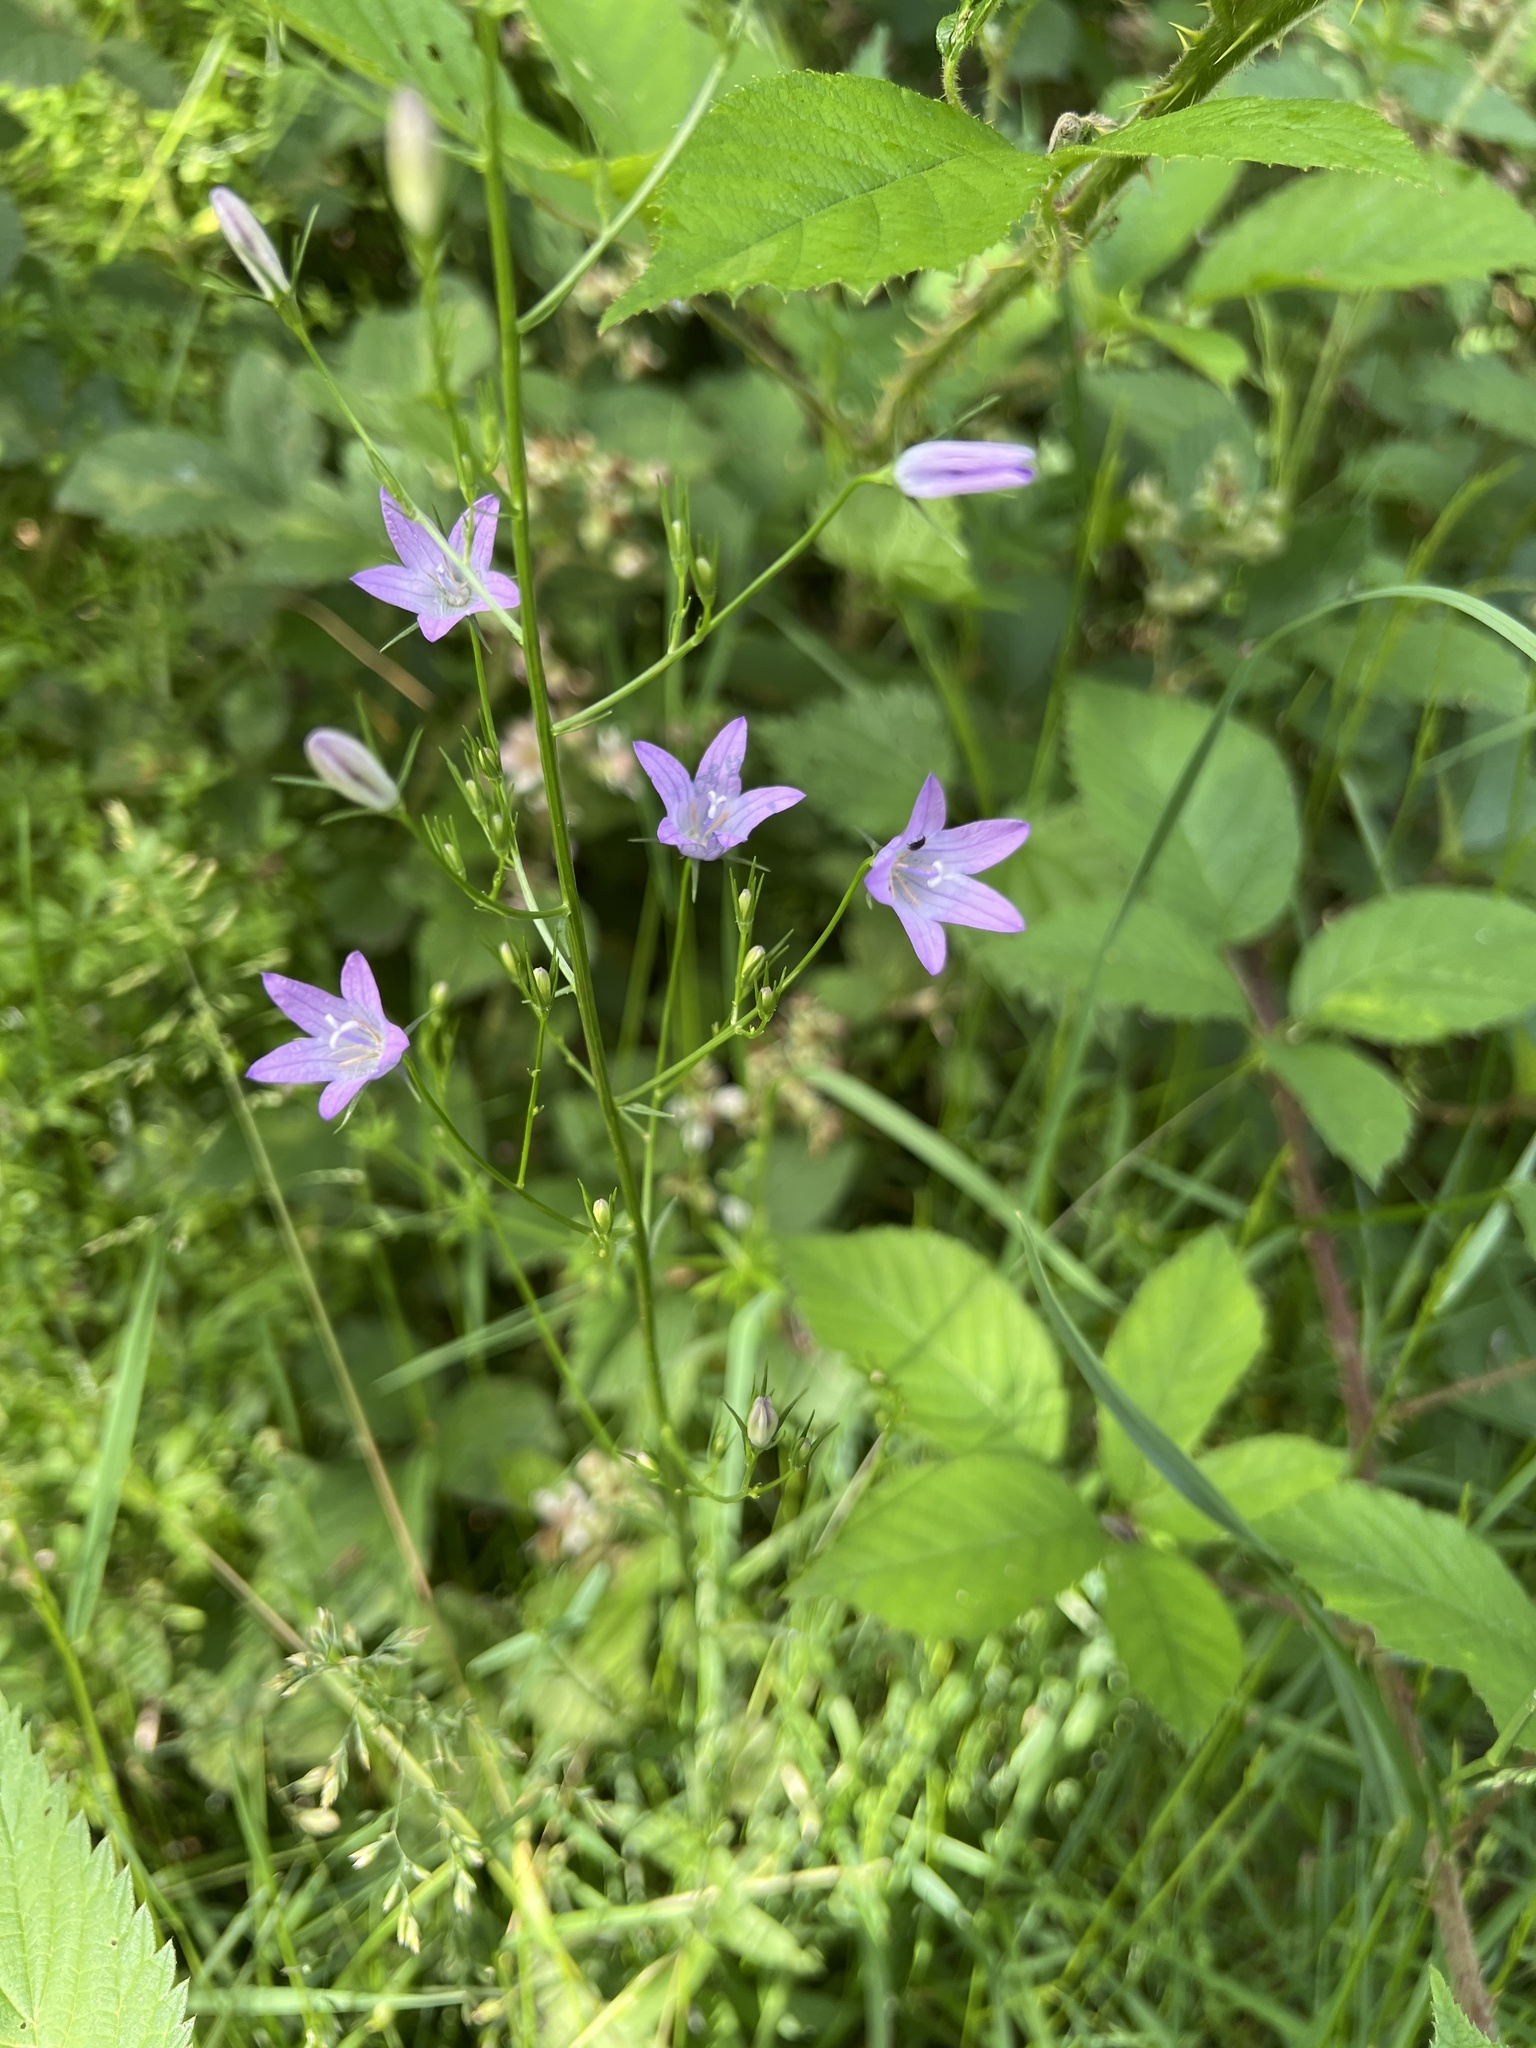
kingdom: Plantae
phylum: Tracheophyta
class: Magnoliopsida
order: Asterales
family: Campanulaceae
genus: Campanula
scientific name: Campanula rapunculus
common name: Rampion bellflower
